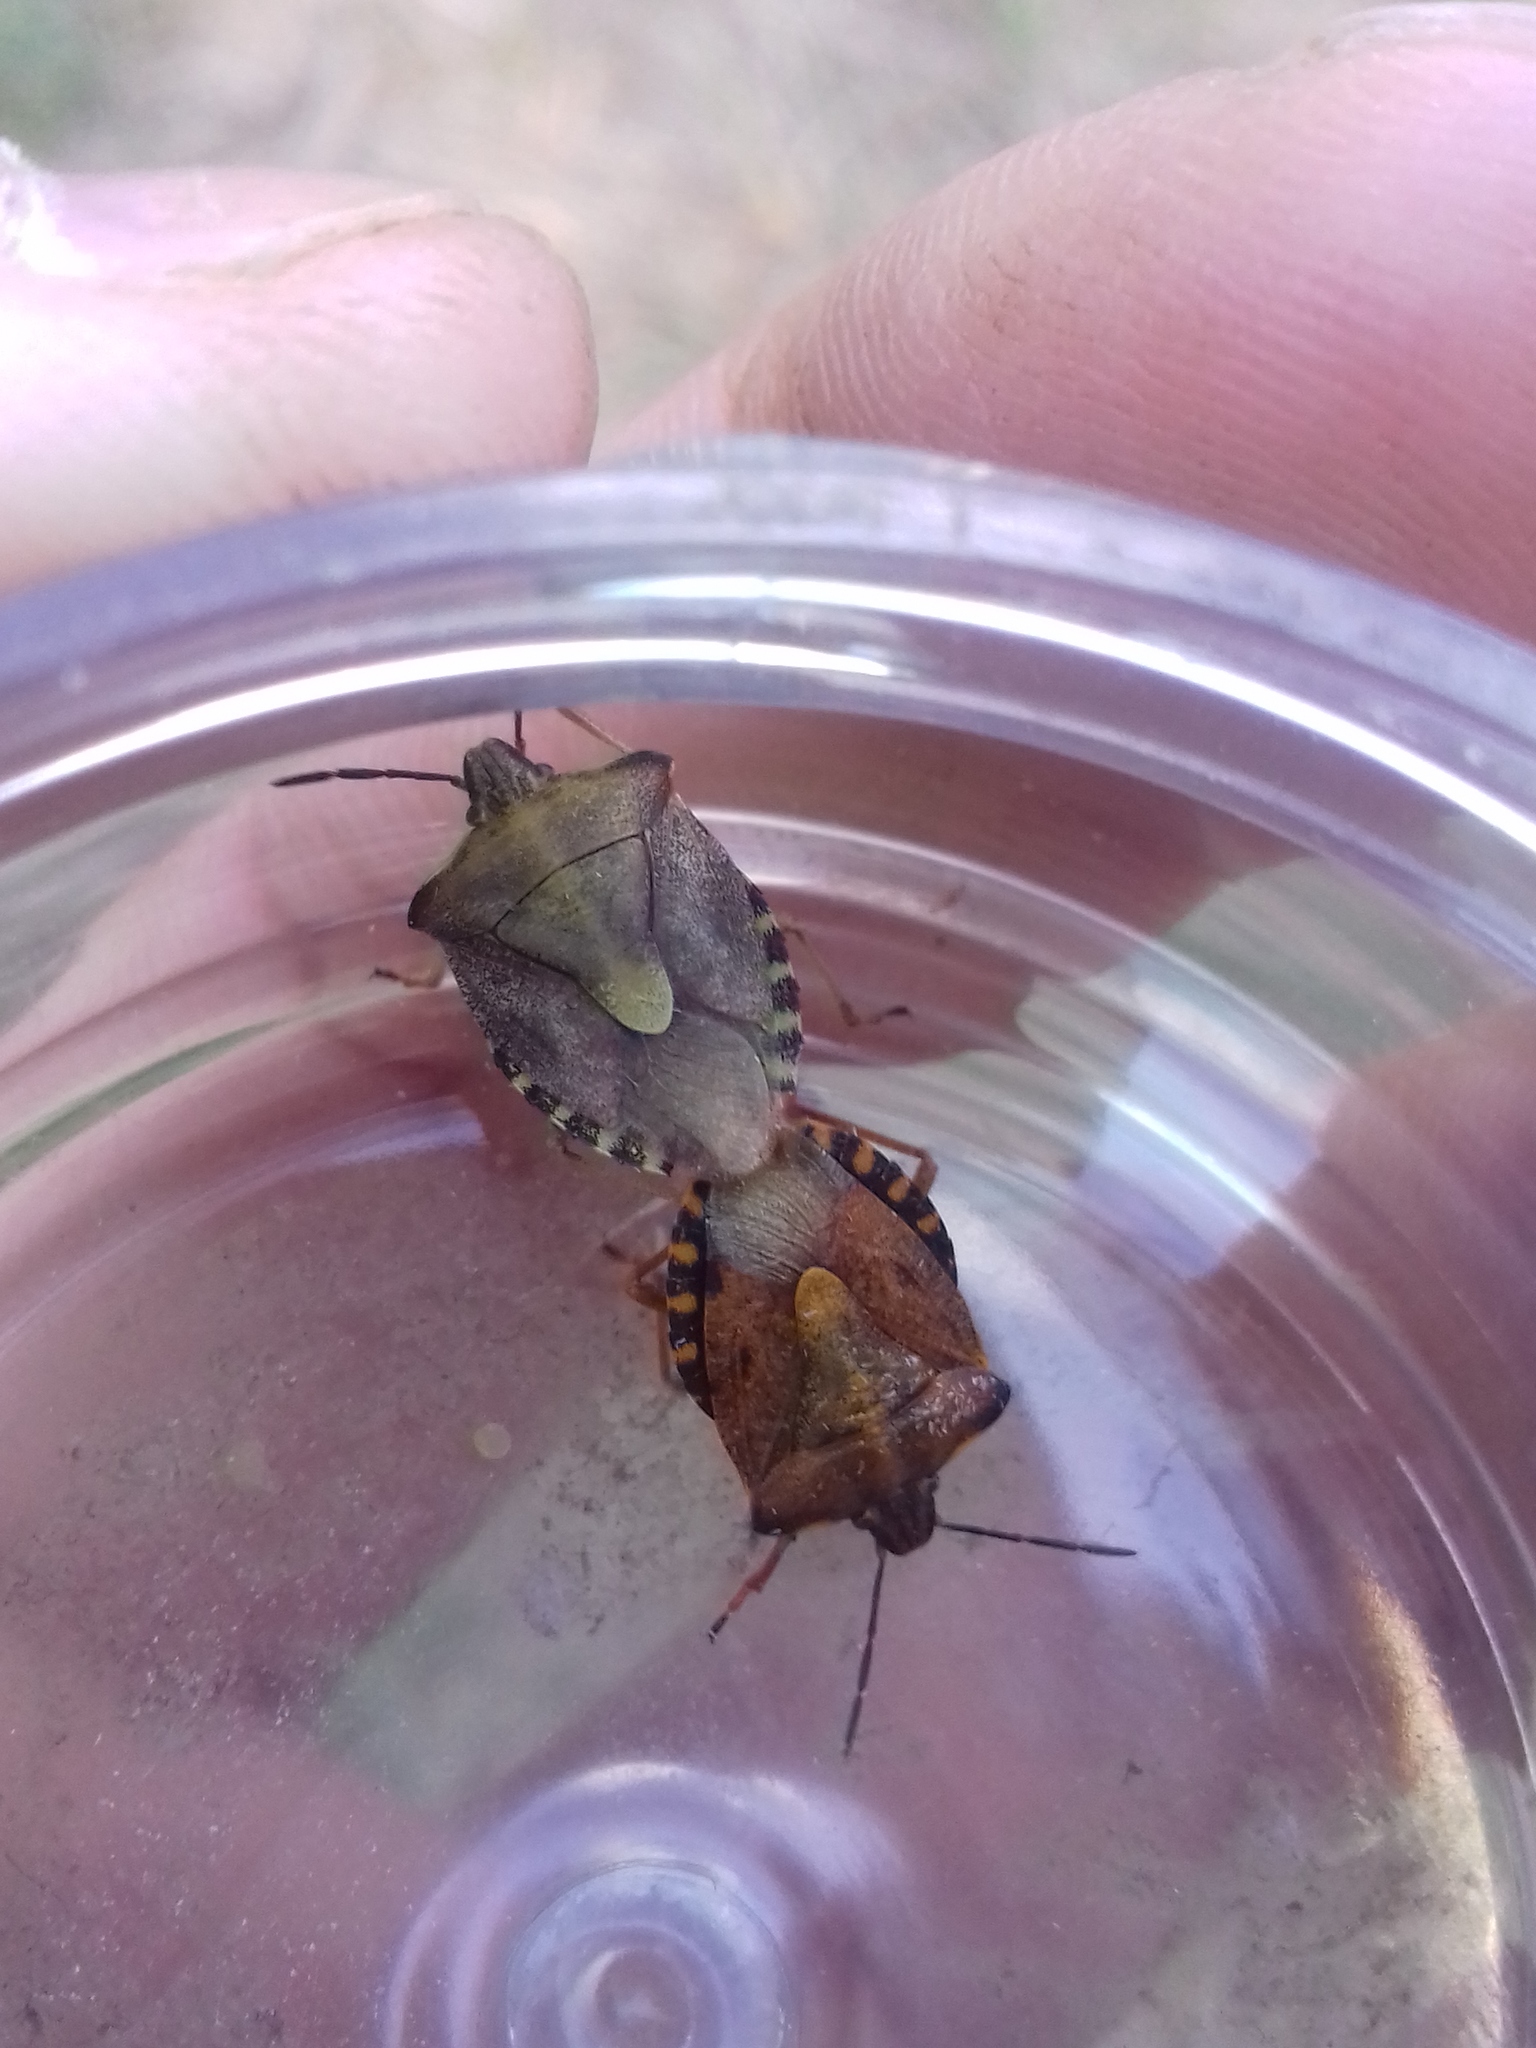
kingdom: Animalia
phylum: Arthropoda
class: Insecta
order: Hemiptera
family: Pentatomidae
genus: Carpocoris
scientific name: Carpocoris purpureipennis
